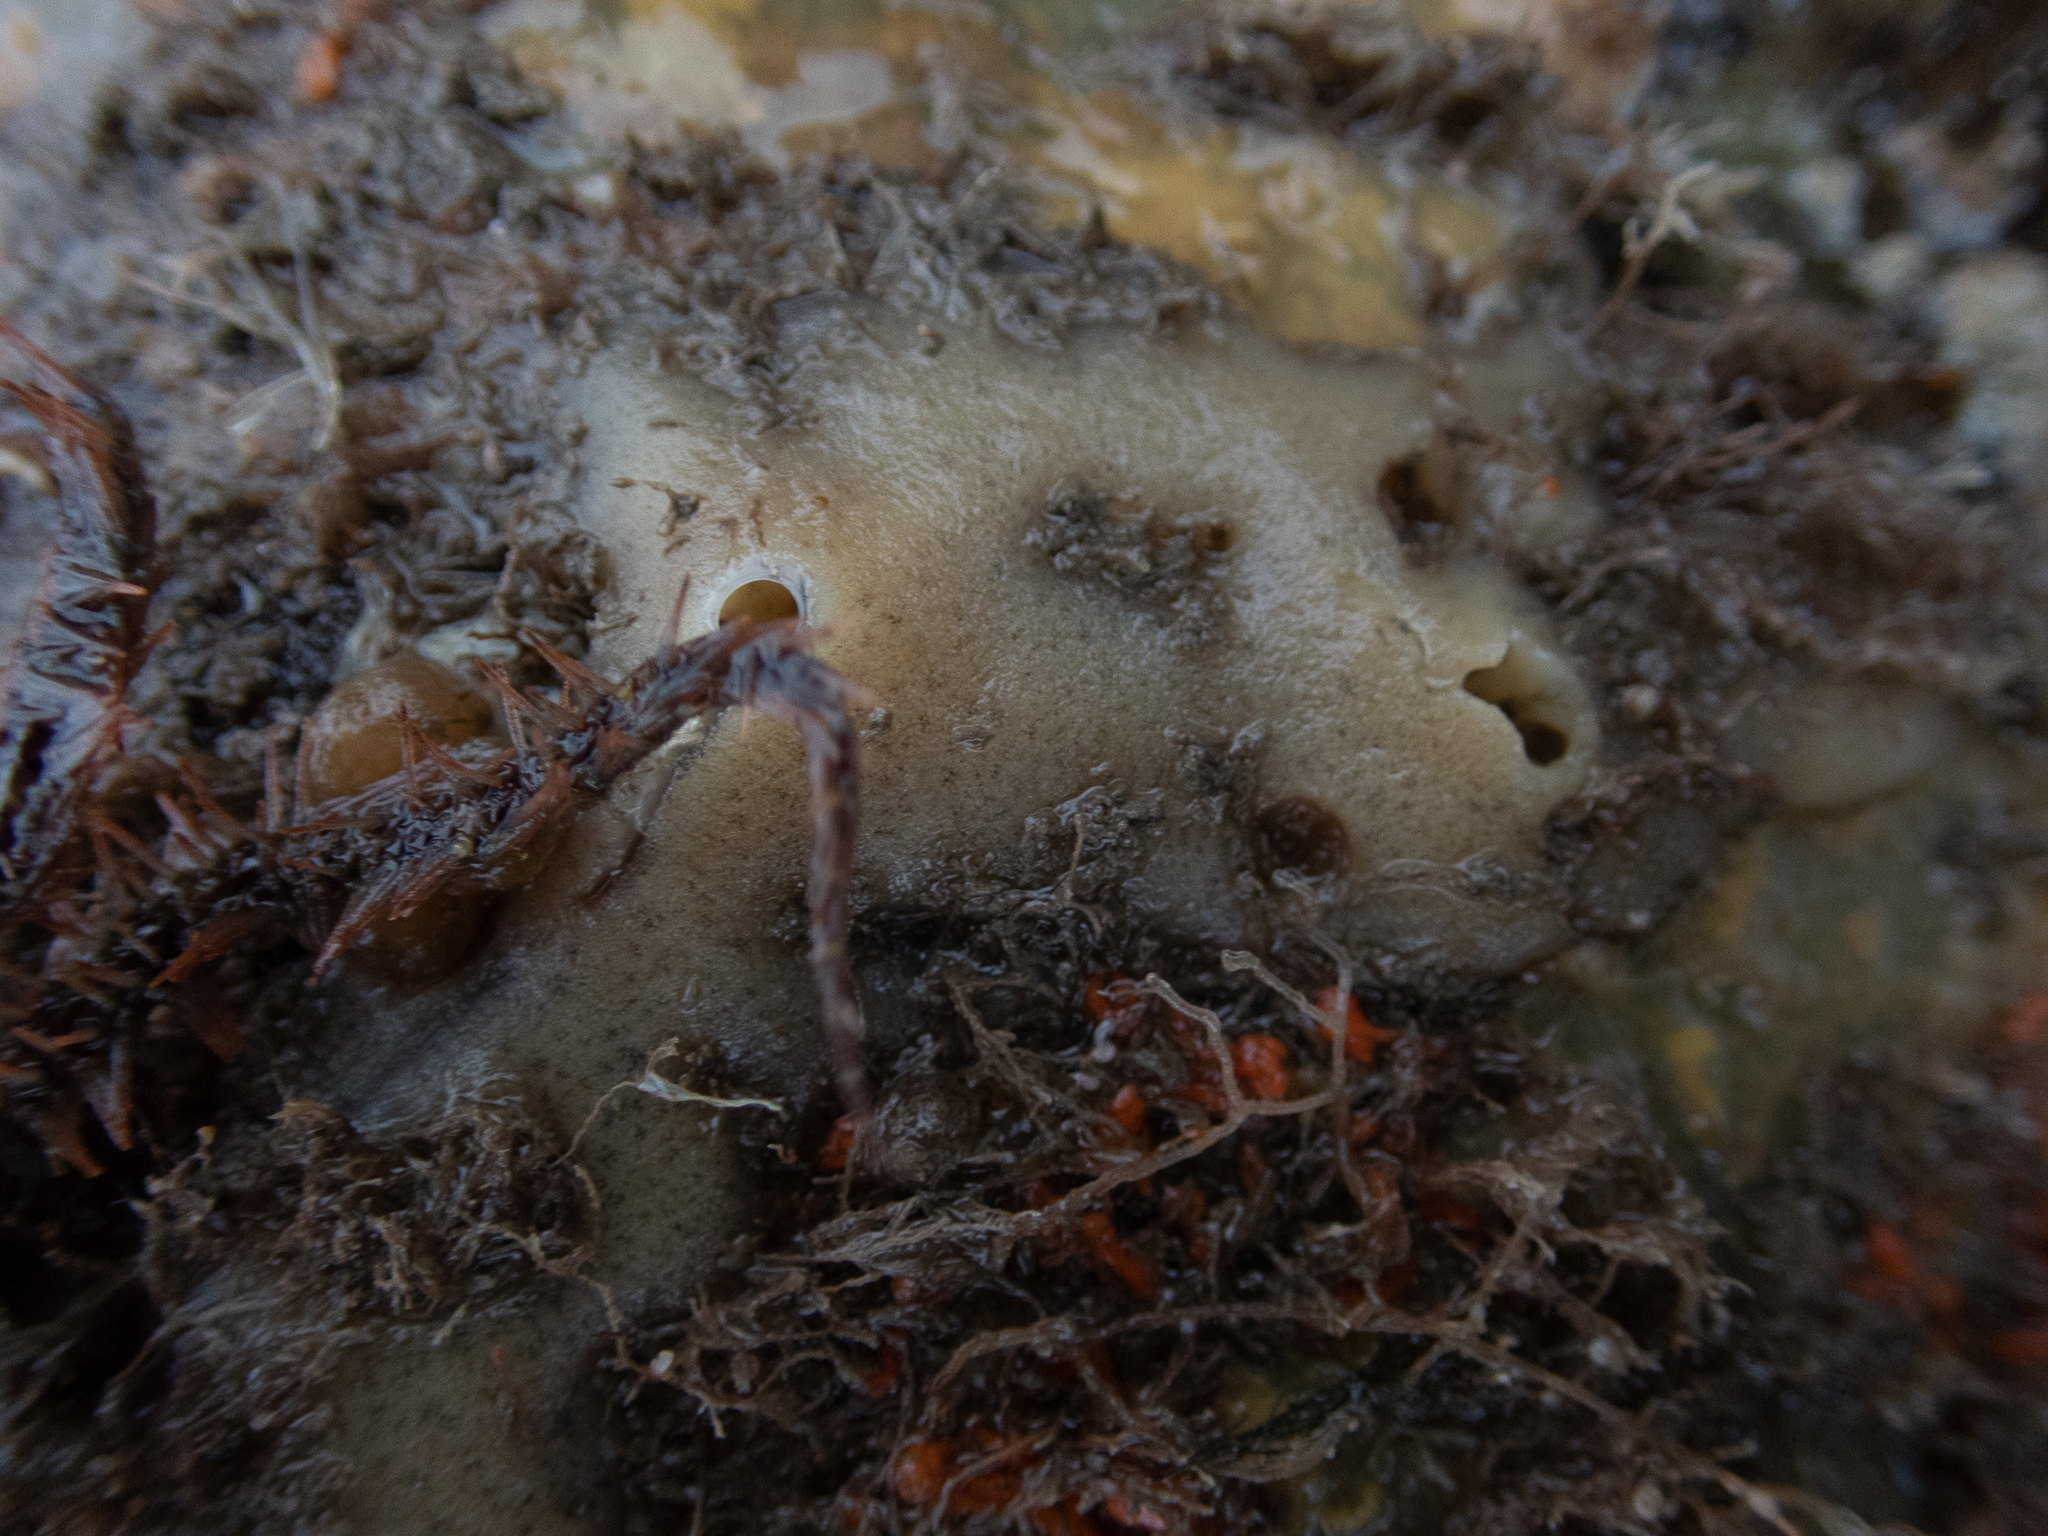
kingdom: Animalia
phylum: Porifera
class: Demospongiae
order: Haplosclerida
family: Chalinidae
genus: Haliclona
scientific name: Haliclona cinerea
